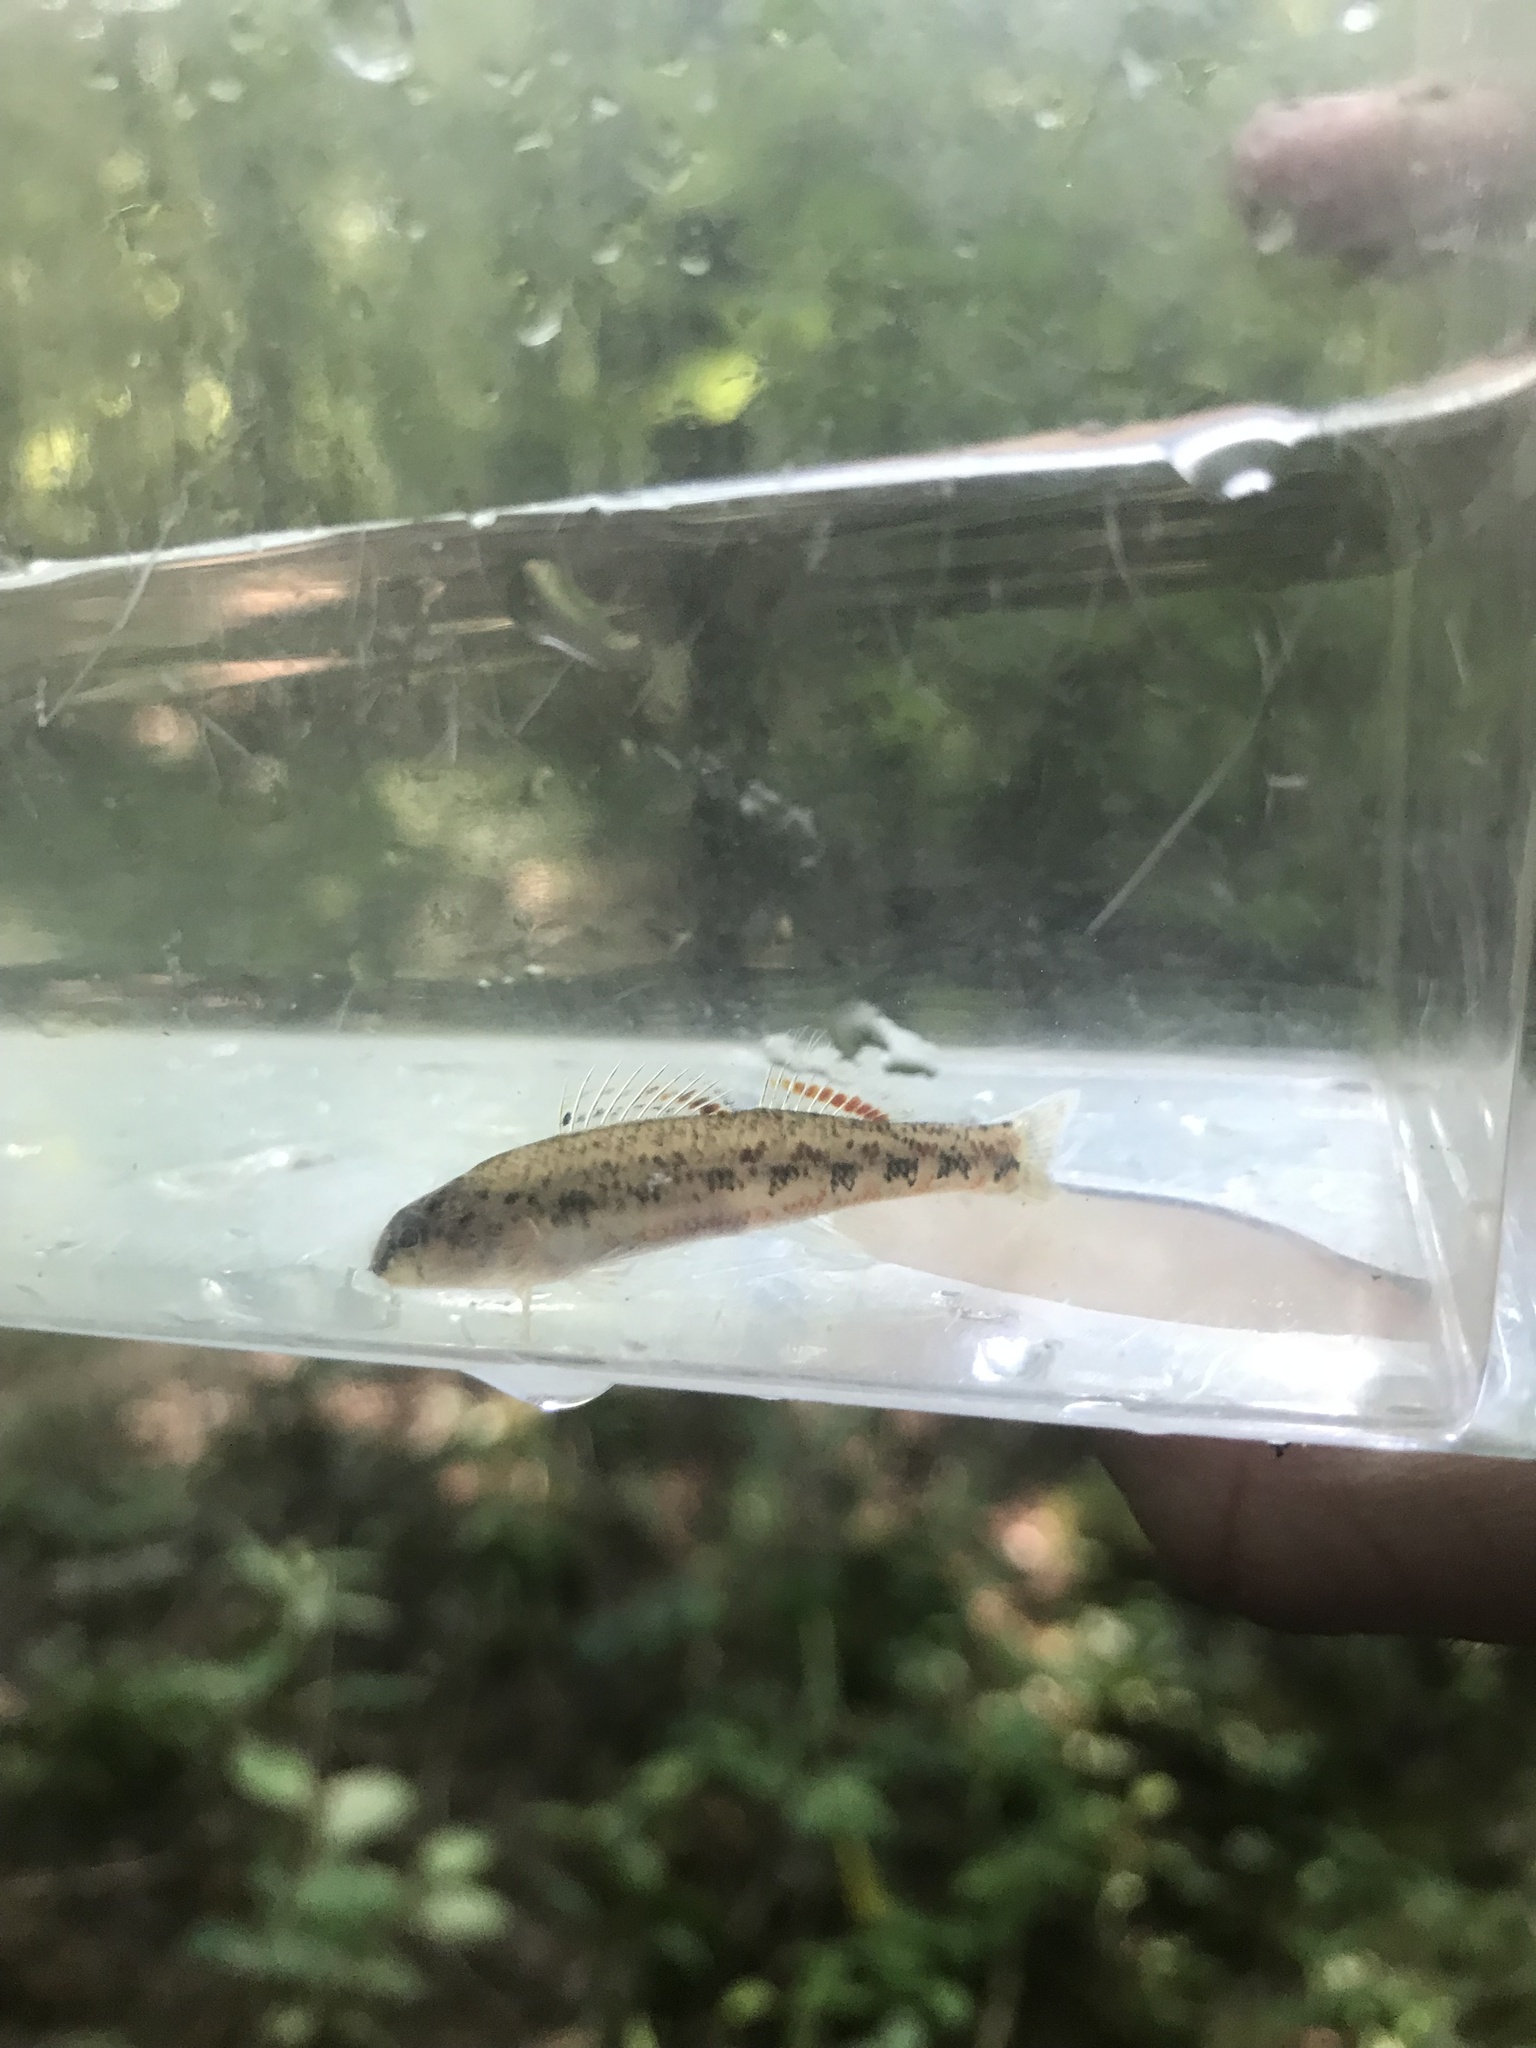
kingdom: Animalia
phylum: Chordata
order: Perciformes
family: Percidae
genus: Etheostoma
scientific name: Etheostoma ramseyi
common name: Alabama darter
